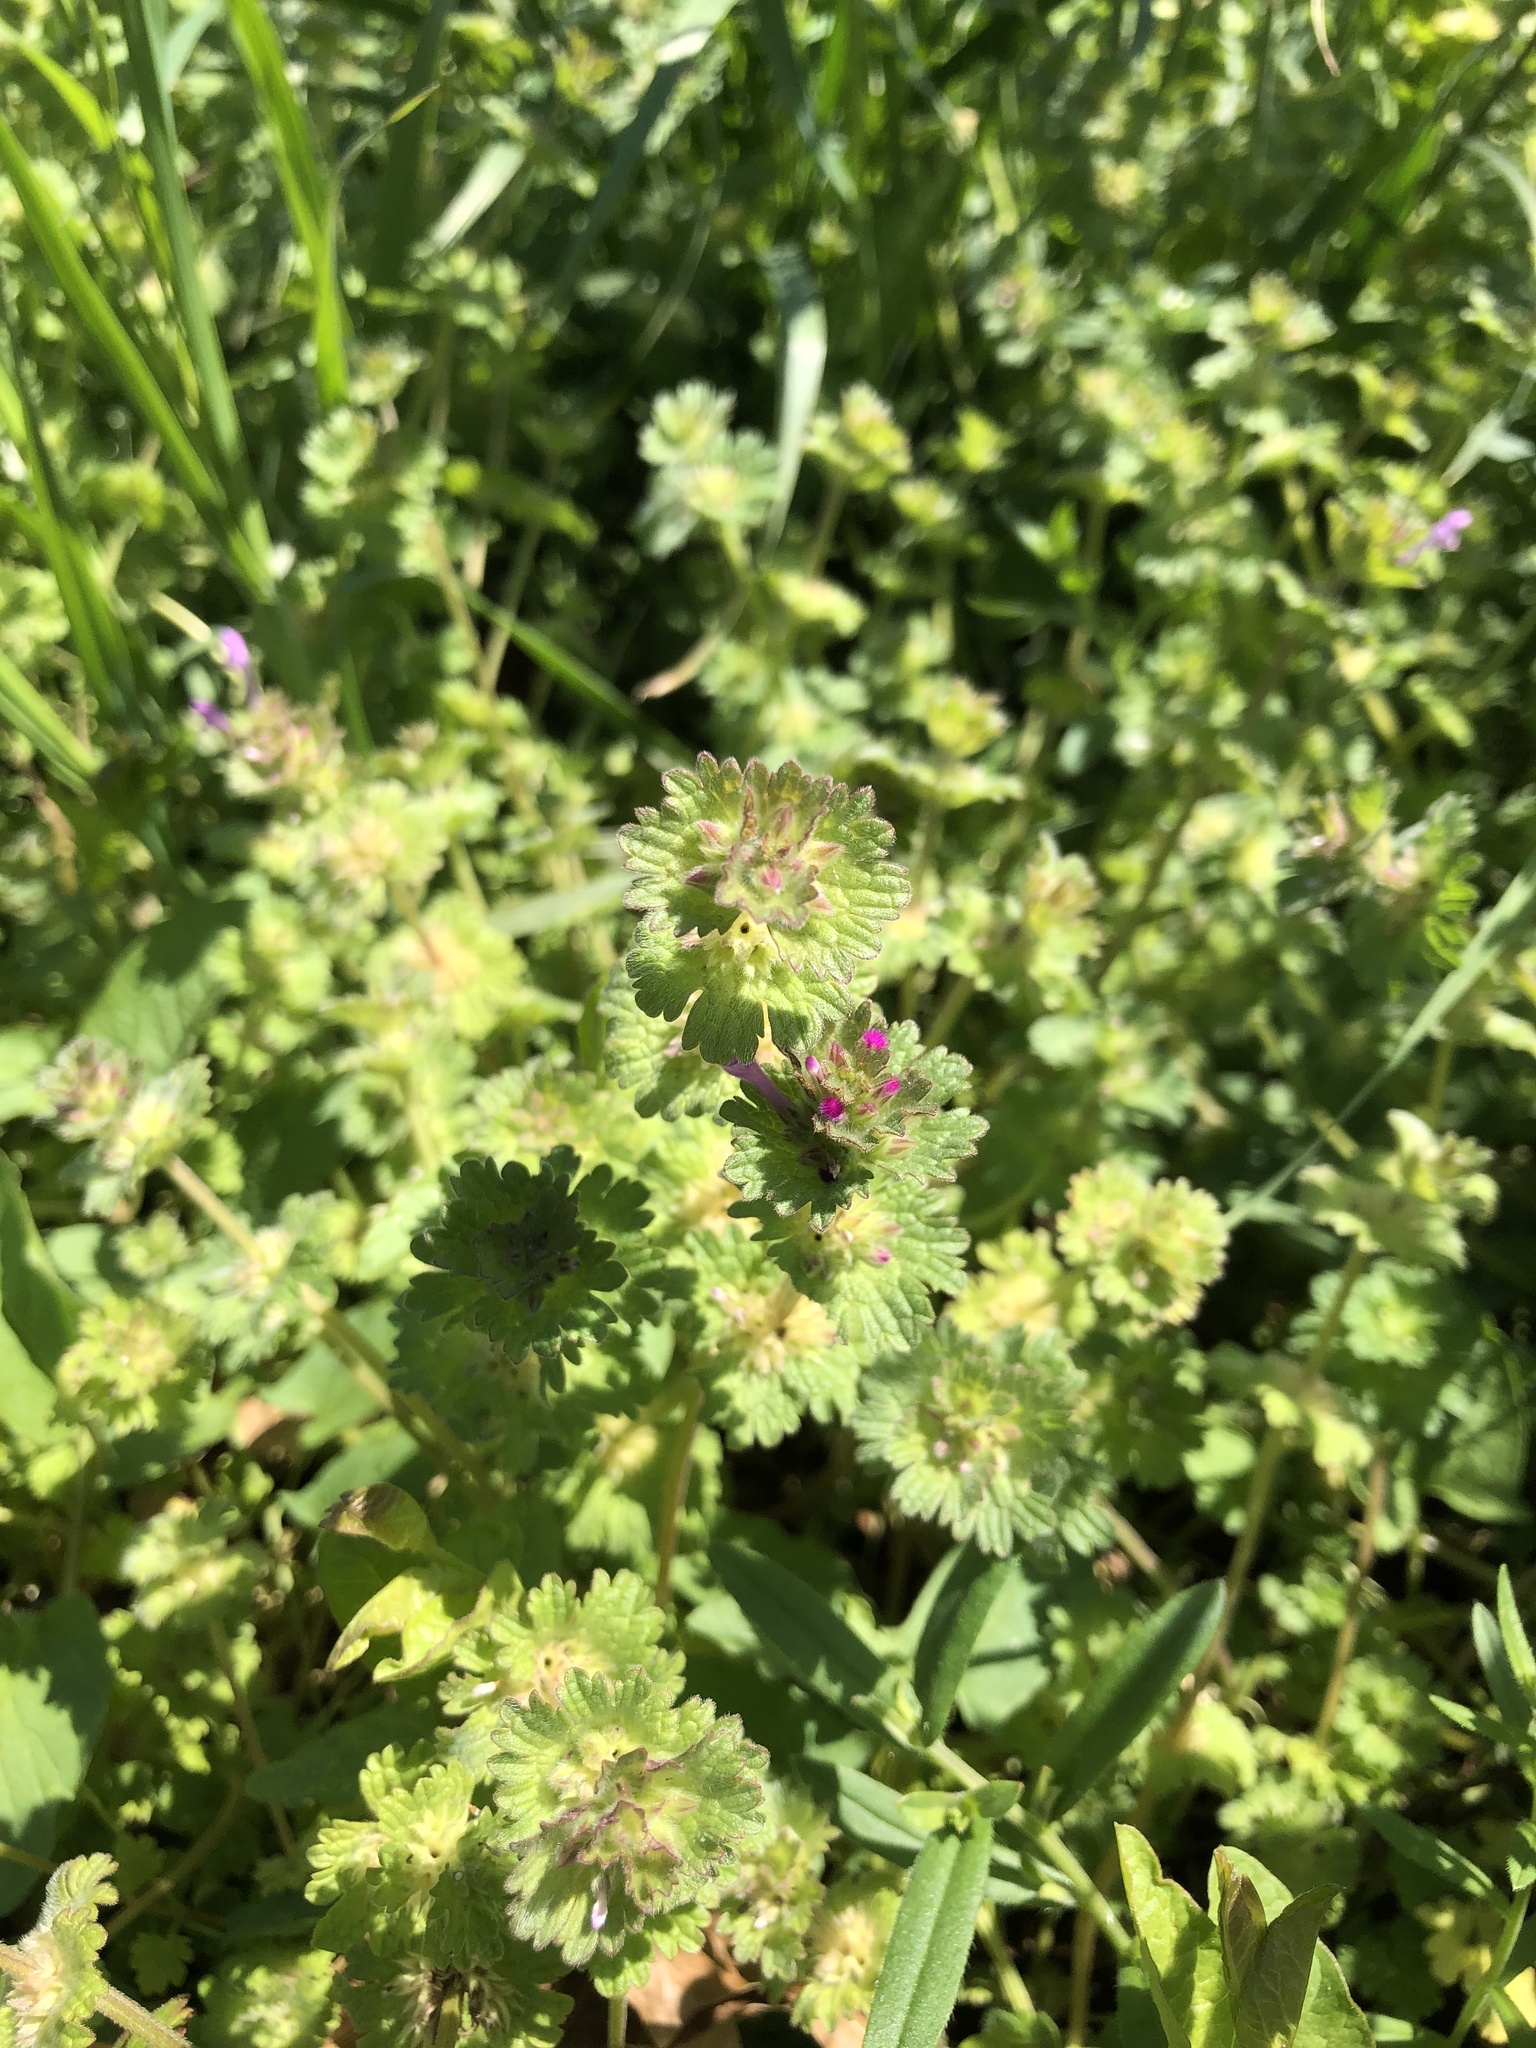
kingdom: Plantae
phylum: Tracheophyta
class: Magnoliopsida
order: Lamiales
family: Lamiaceae
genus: Lamium
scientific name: Lamium amplexicaule
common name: Henbit dead-nettle
